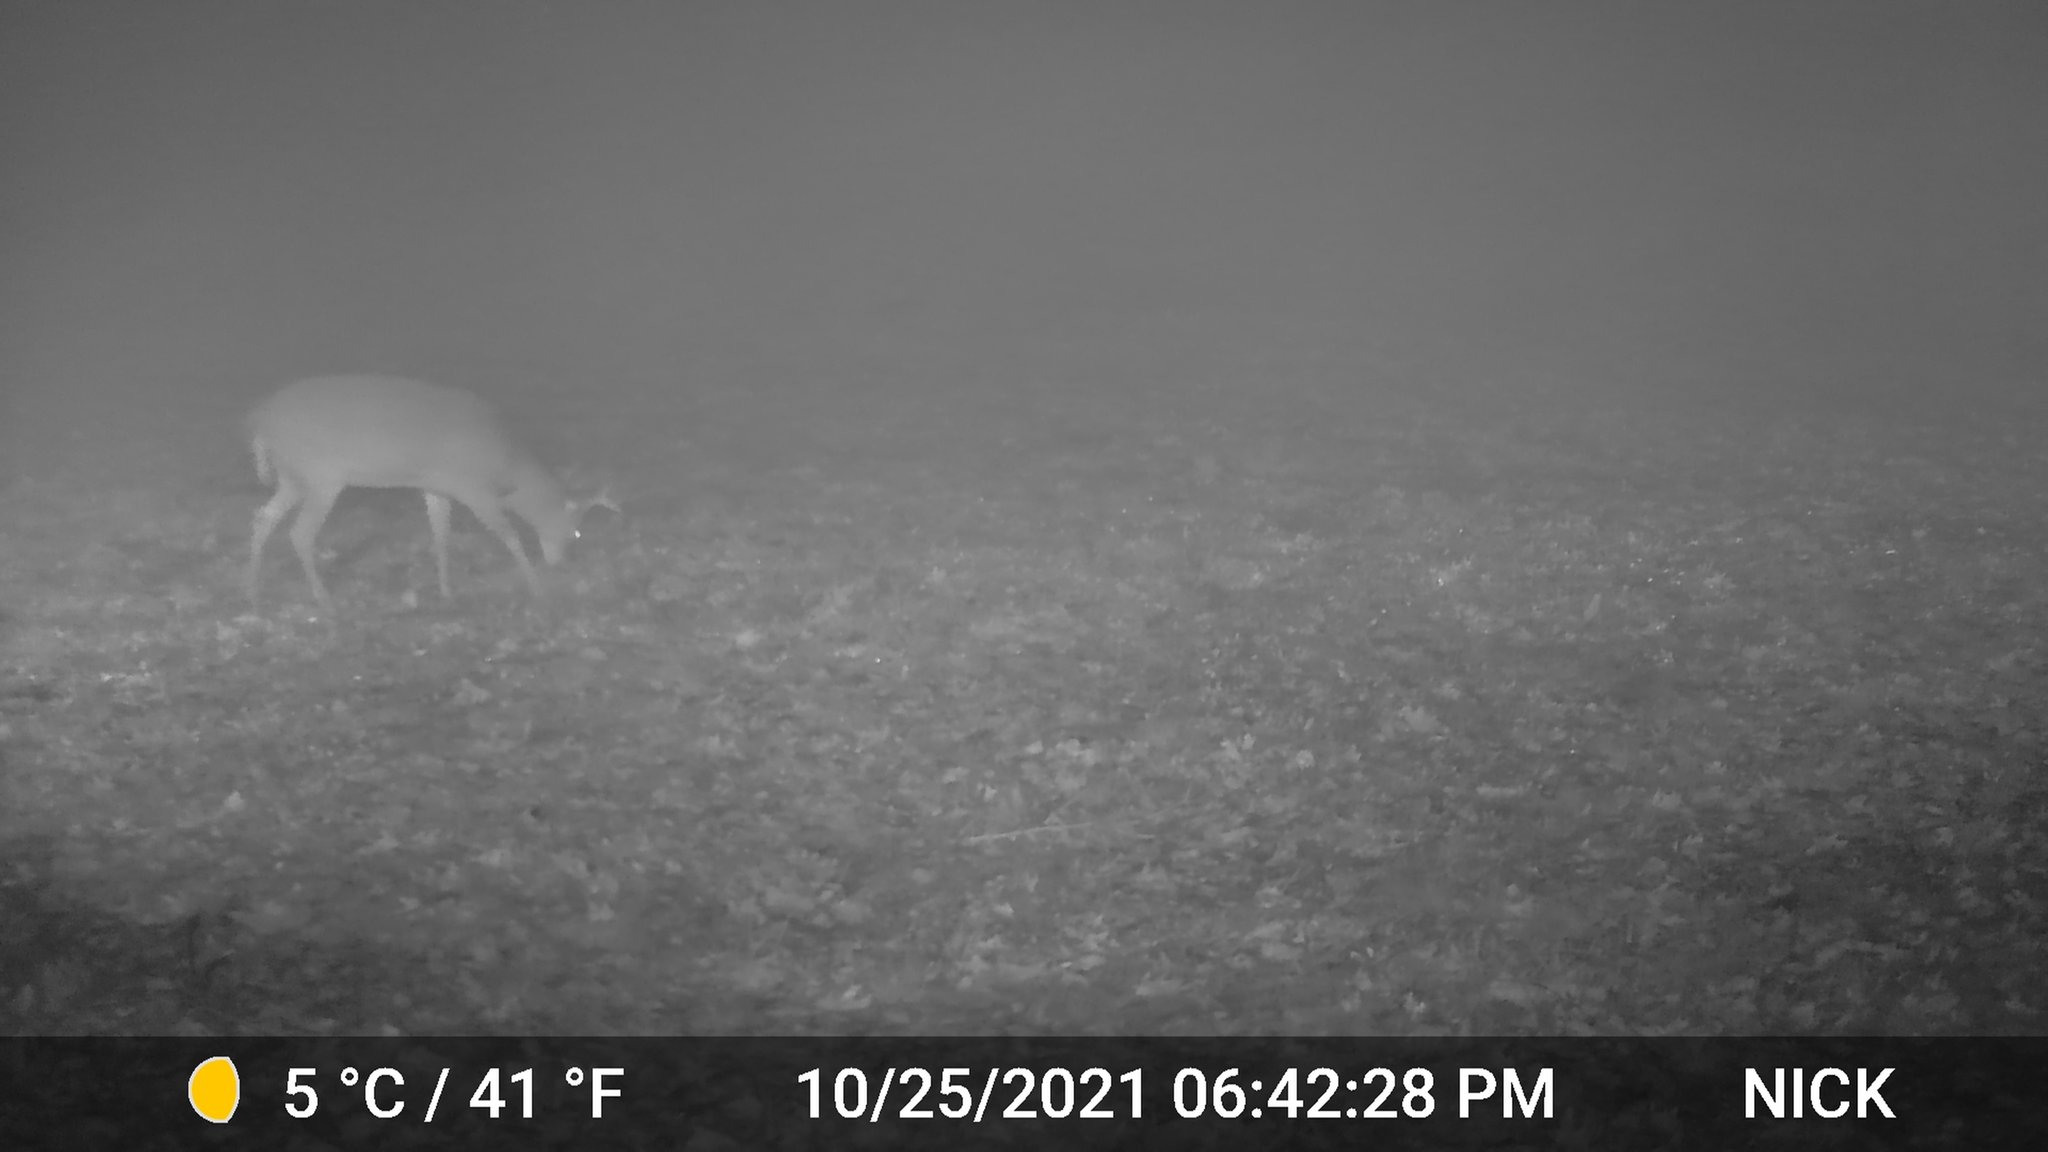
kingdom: Animalia
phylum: Chordata
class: Mammalia
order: Artiodactyla
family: Cervidae
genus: Odocoileus
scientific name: Odocoileus virginianus
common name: White-tailed deer
